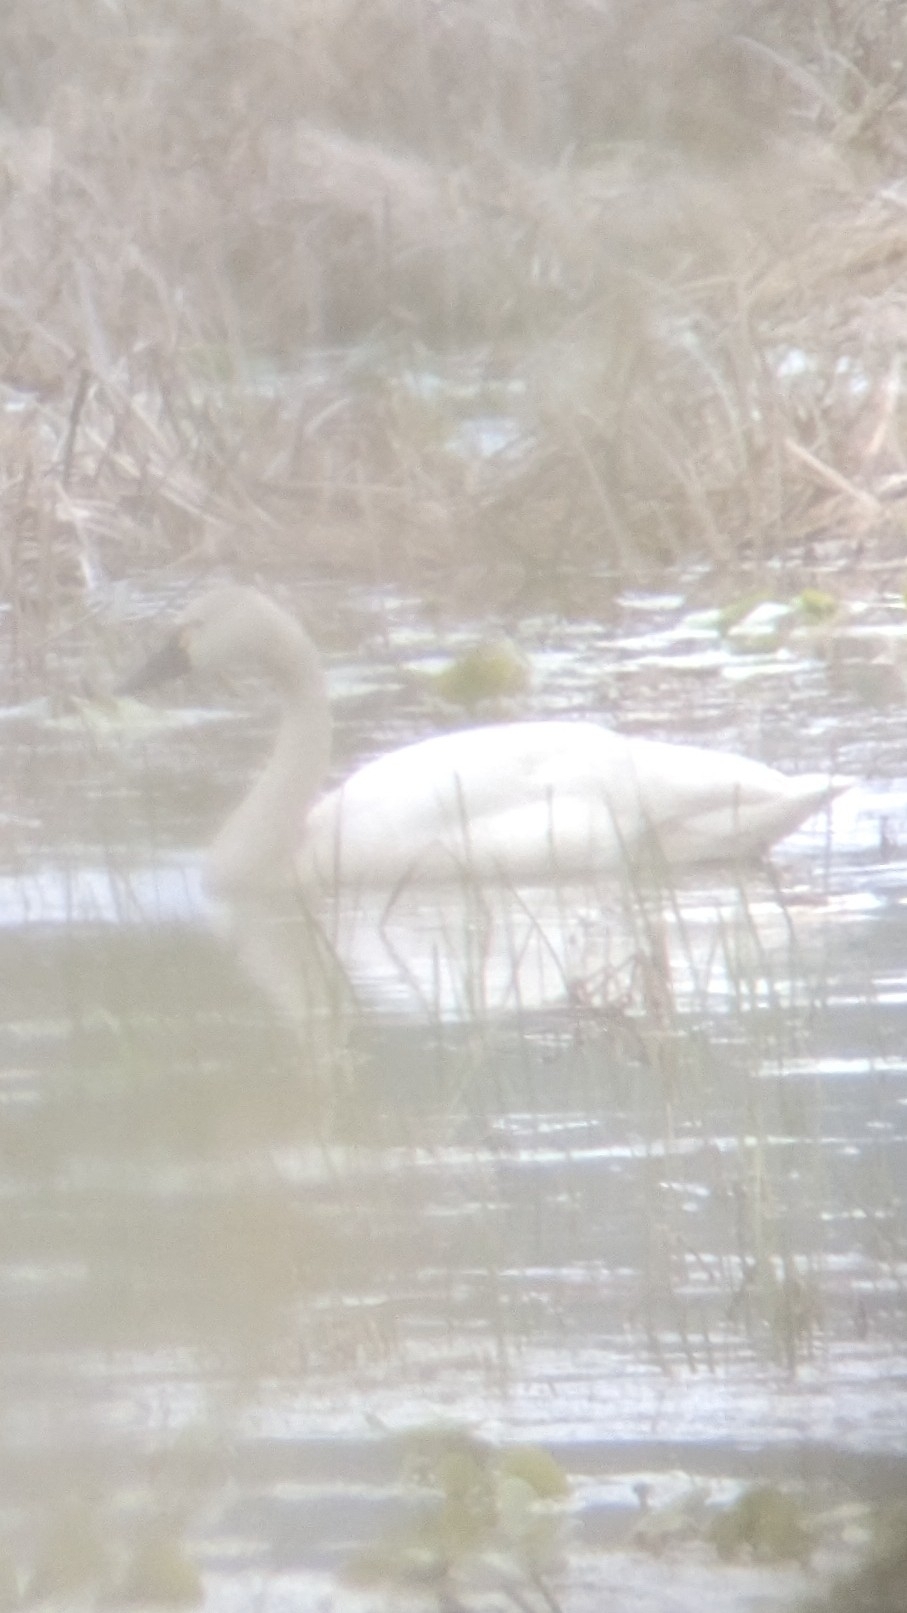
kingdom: Animalia
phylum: Chordata
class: Aves
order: Anseriformes
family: Anatidae
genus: Cygnus
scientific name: Cygnus columbianus
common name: Tundra swan
